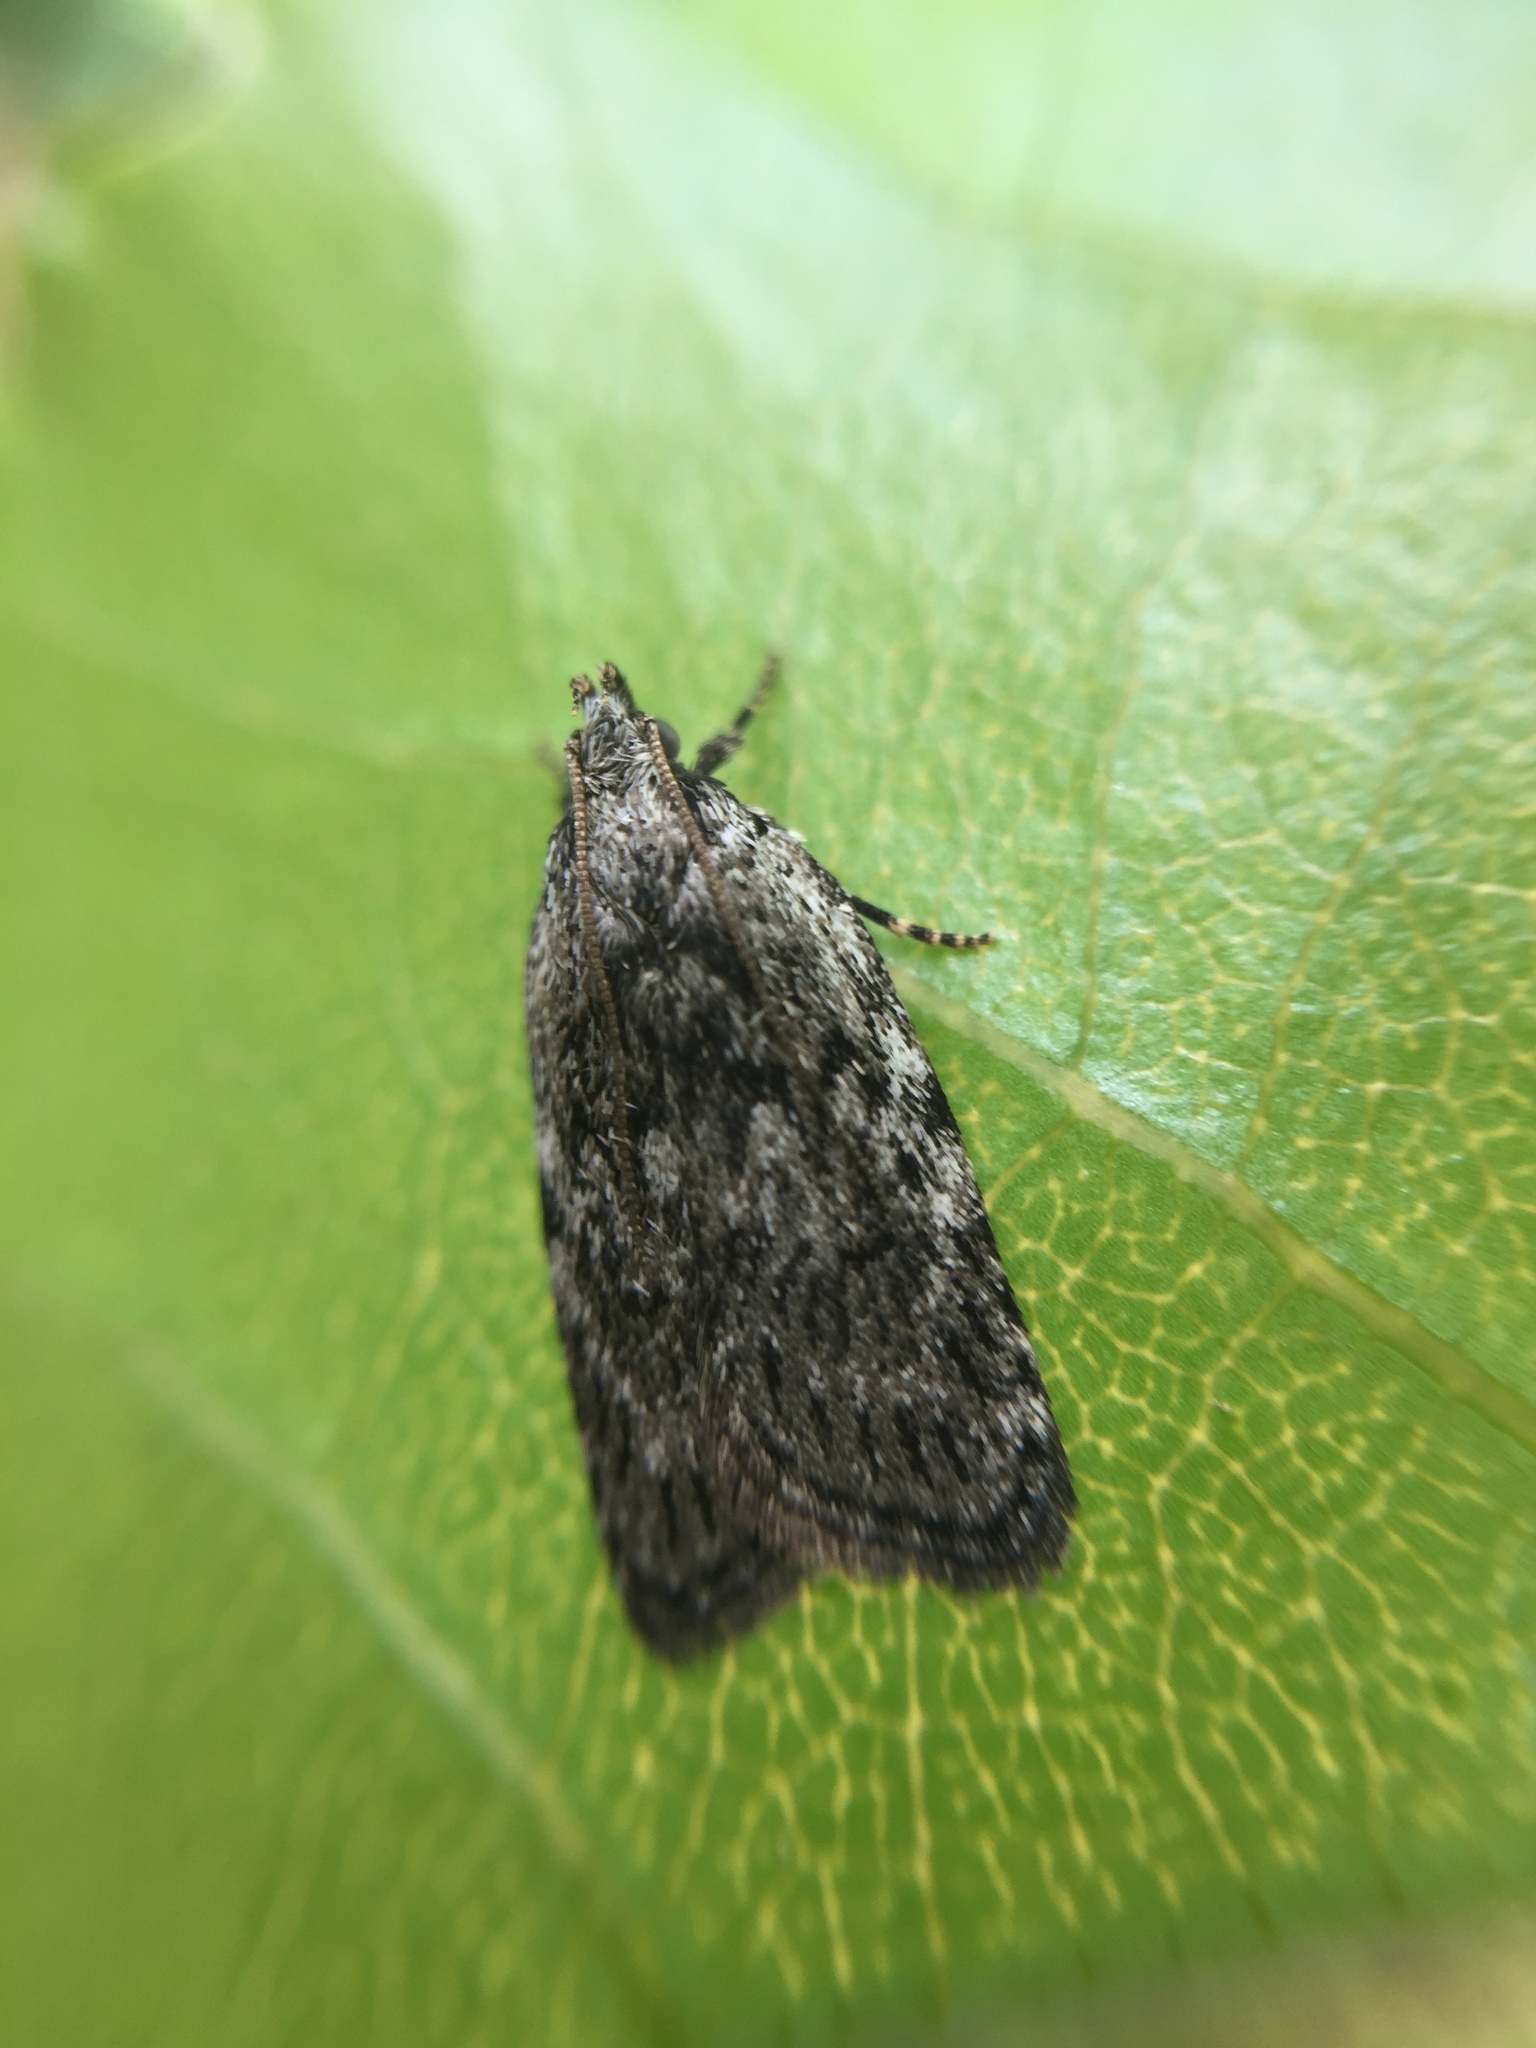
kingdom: Animalia
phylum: Arthropoda
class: Insecta
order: Lepidoptera
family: Depressariidae
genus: Phaeosaces
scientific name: Phaeosaces compsotypa
